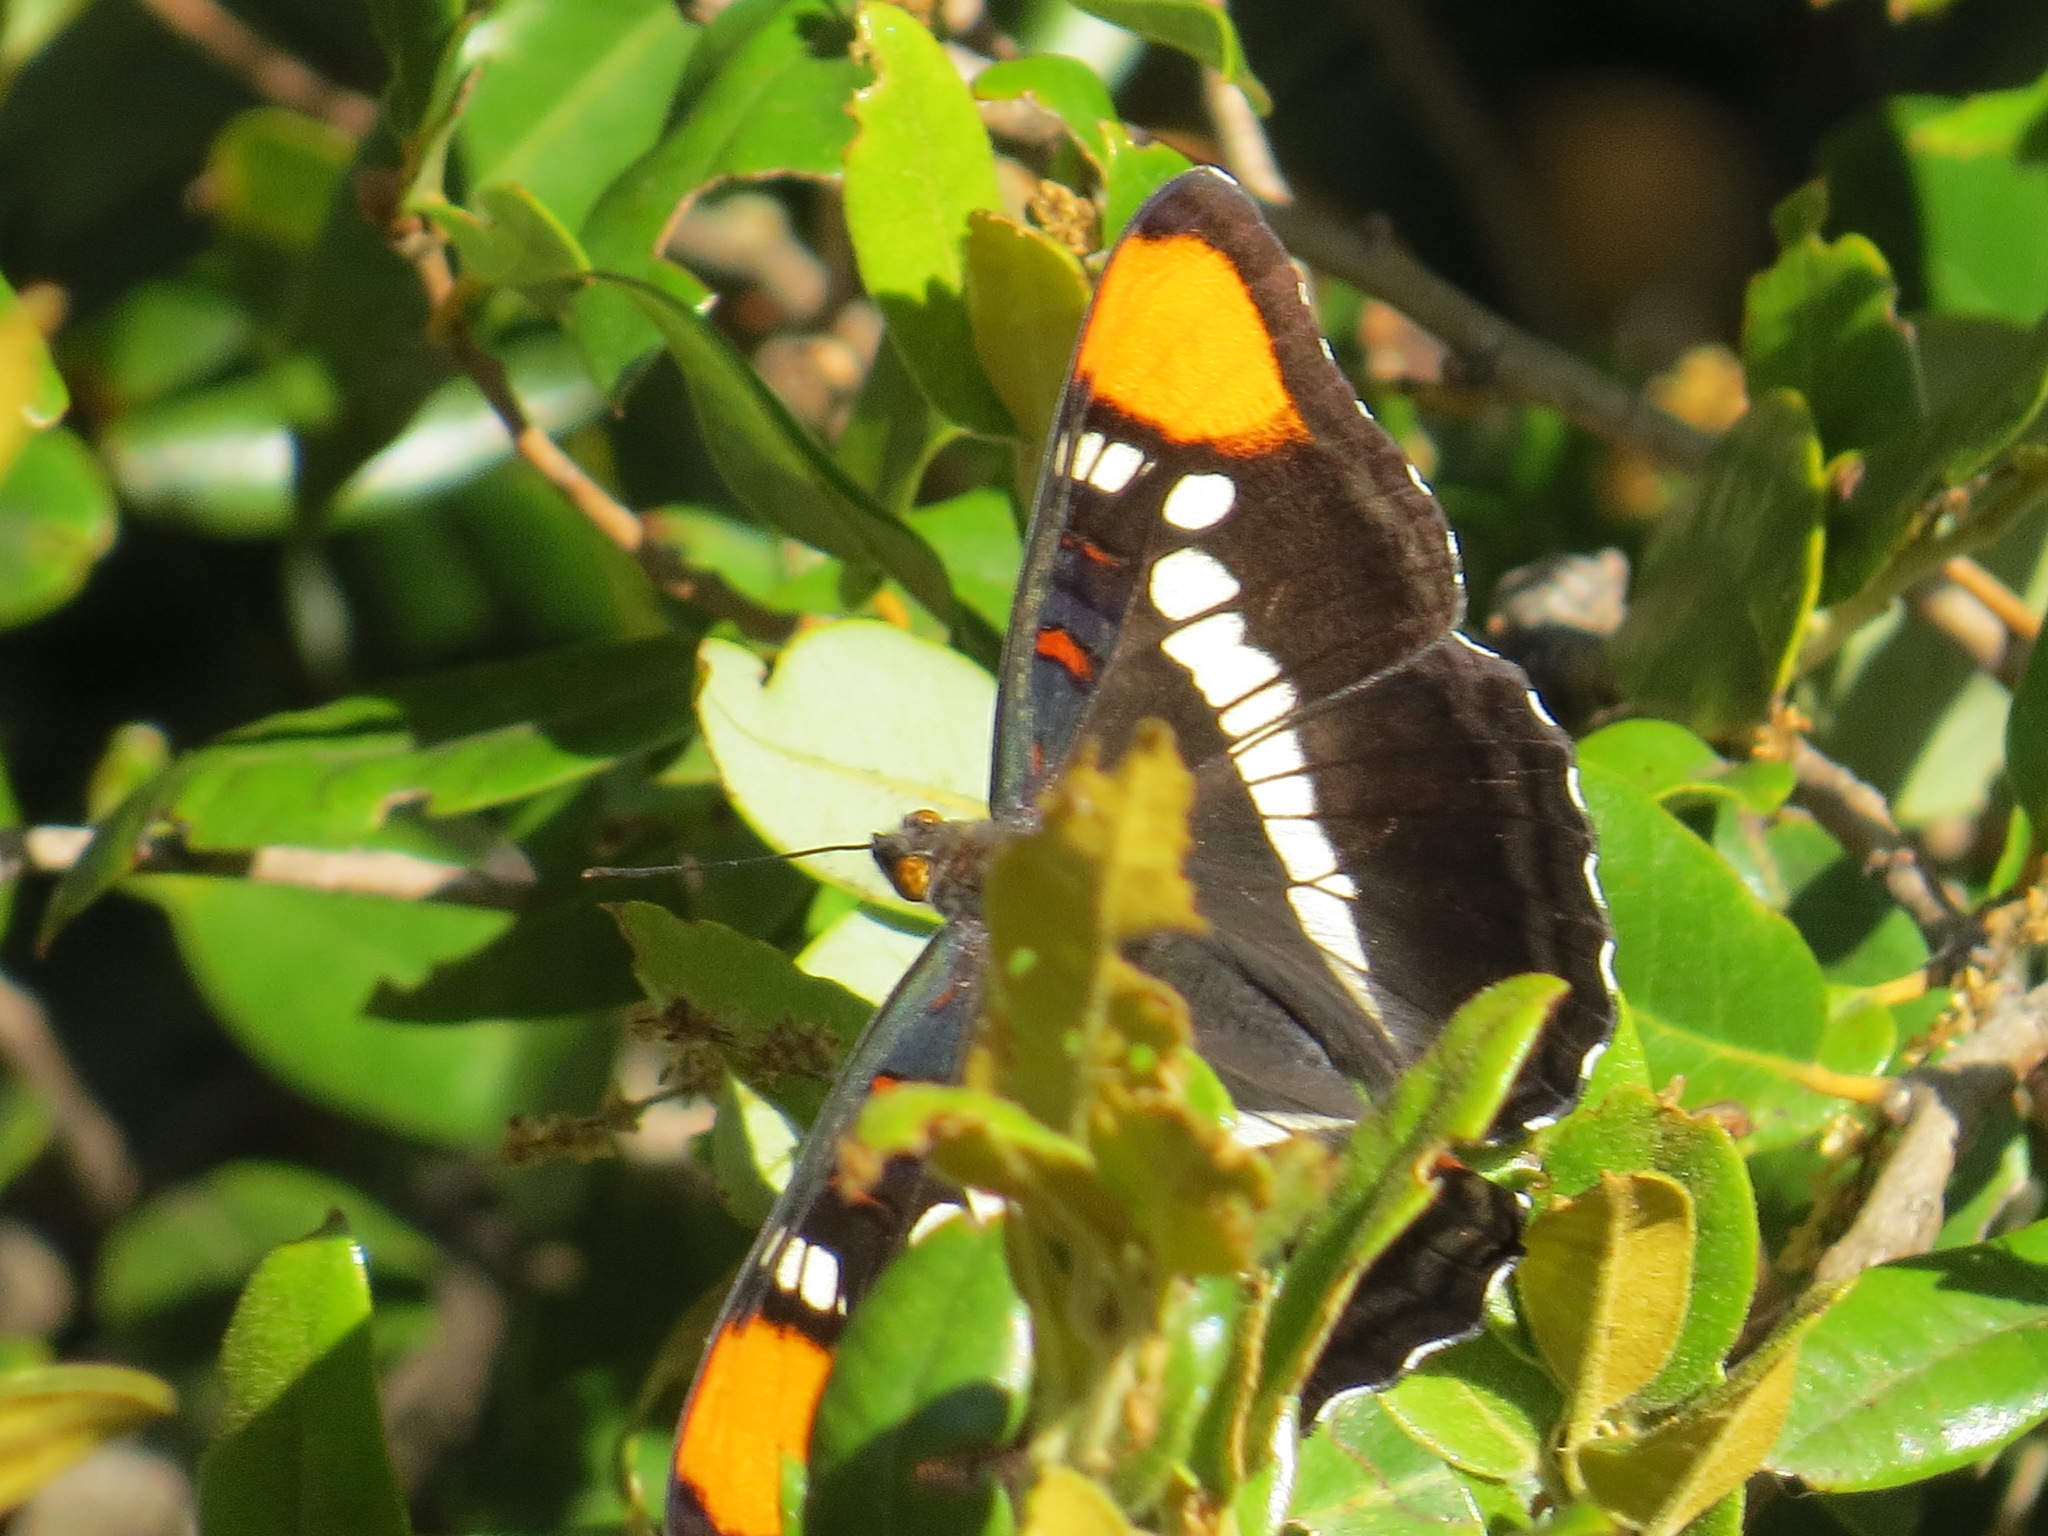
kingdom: Animalia
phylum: Arthropoda
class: Insecta
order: Lepidoptera
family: Nymphalidae
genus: Limenitis
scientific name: Limenitis bredowii
